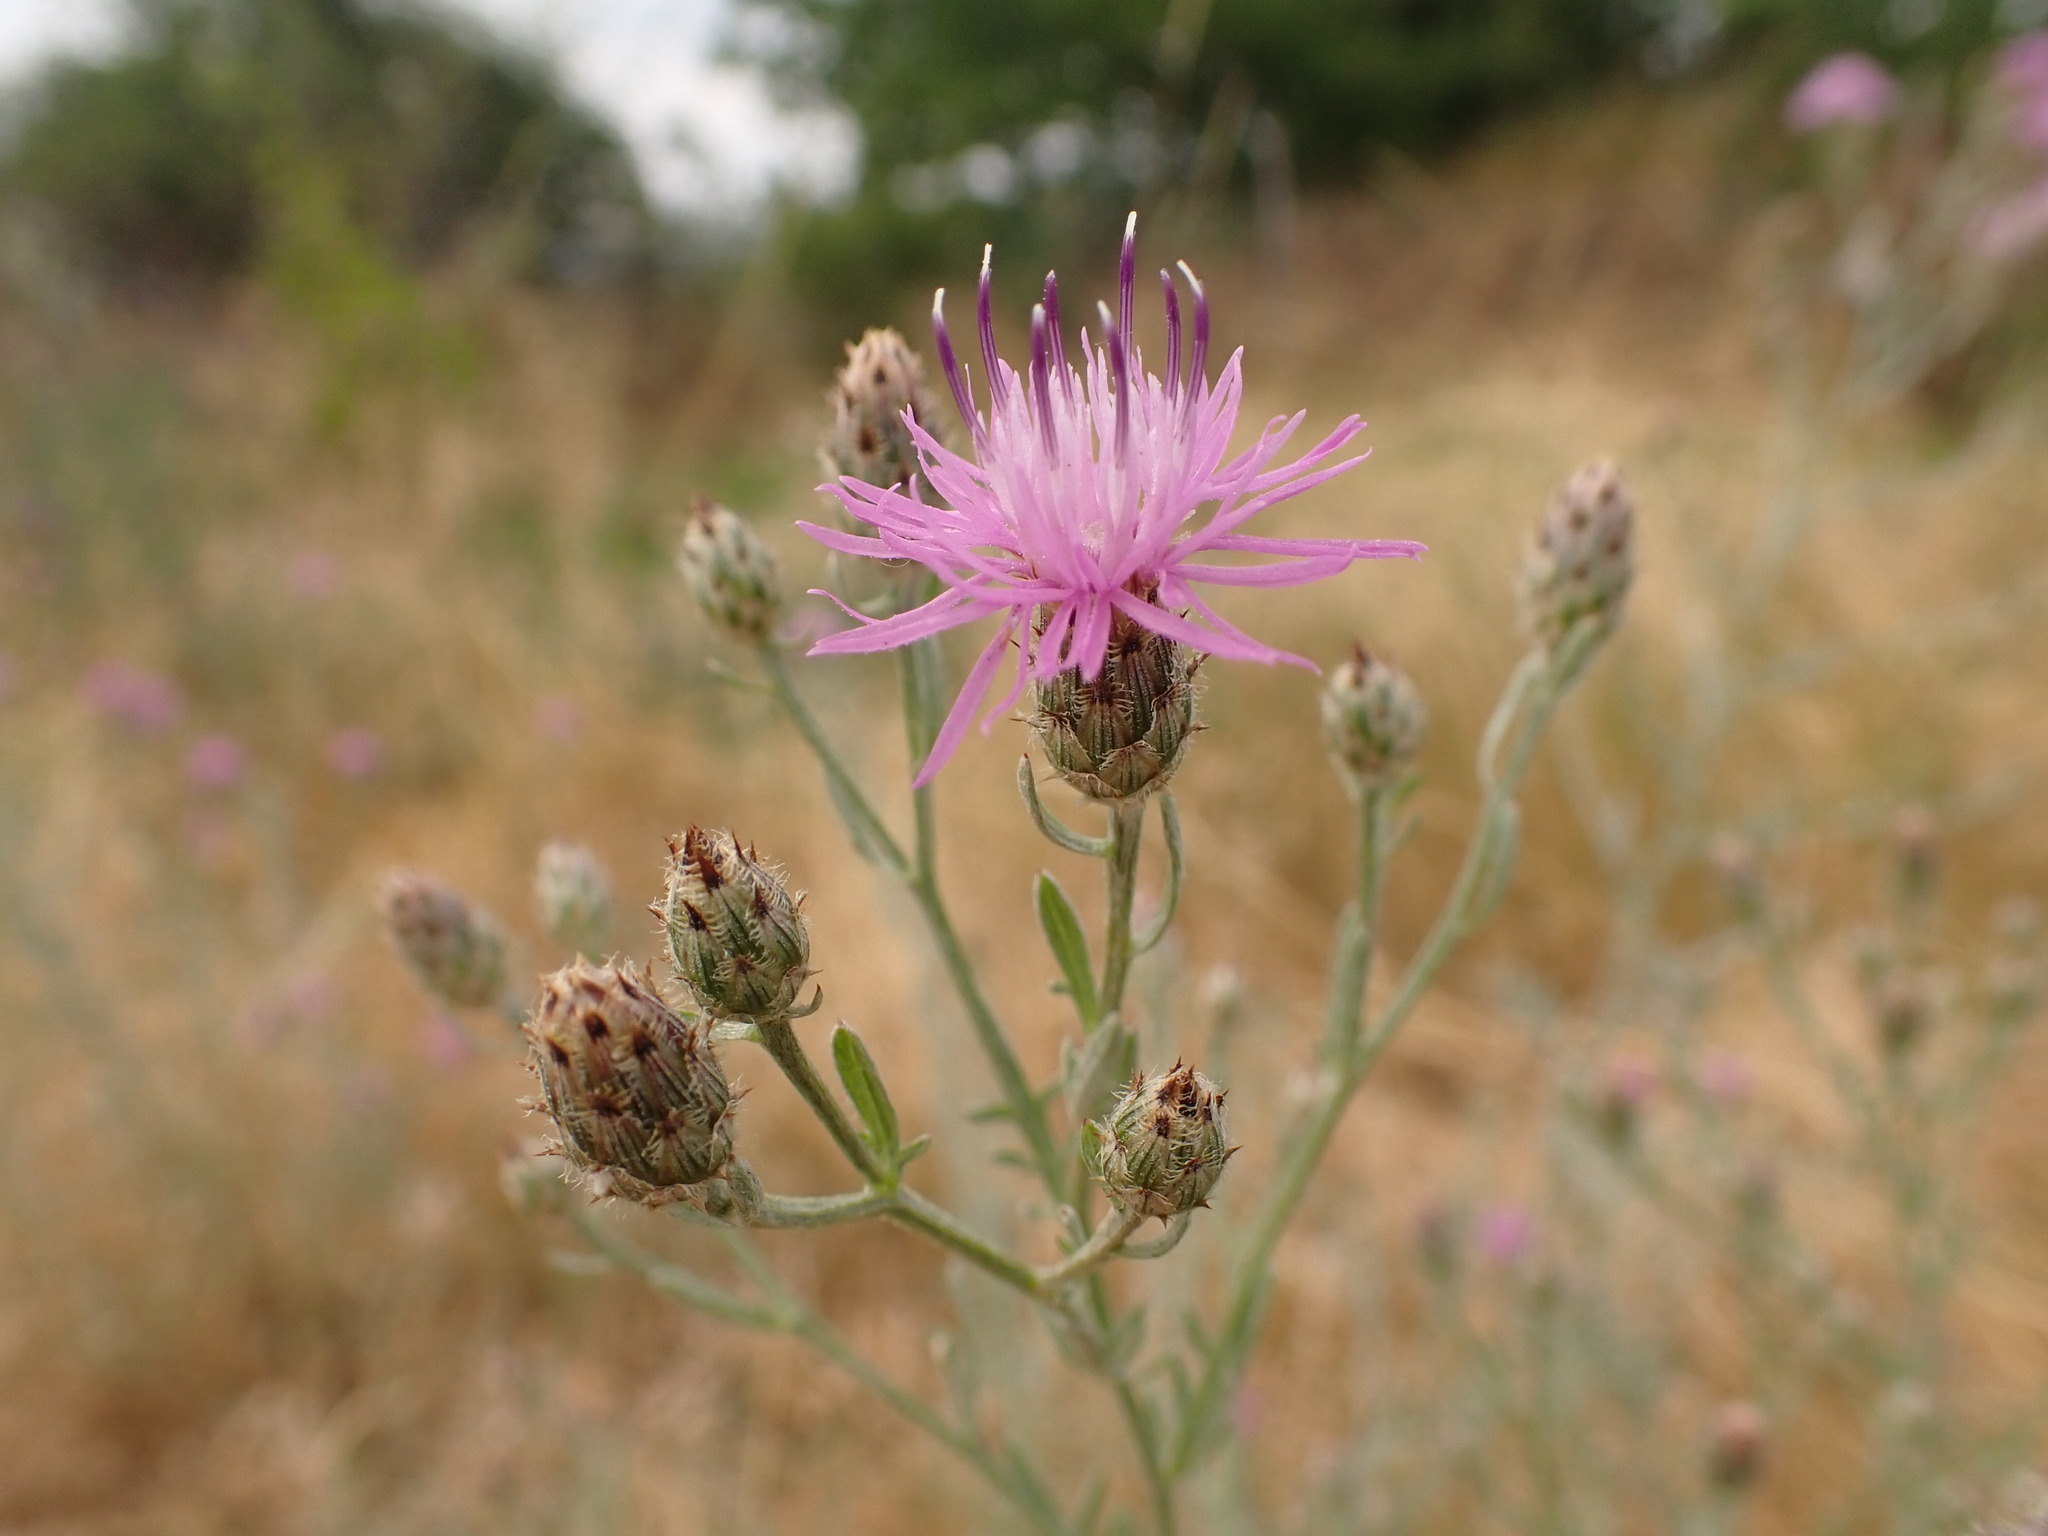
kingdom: Plantae
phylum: Tracheophyta
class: Magnoliopsida
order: Asterales
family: Asteraceae
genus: Centaurea
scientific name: Centaurea stoebe
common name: Spotted knapweed
